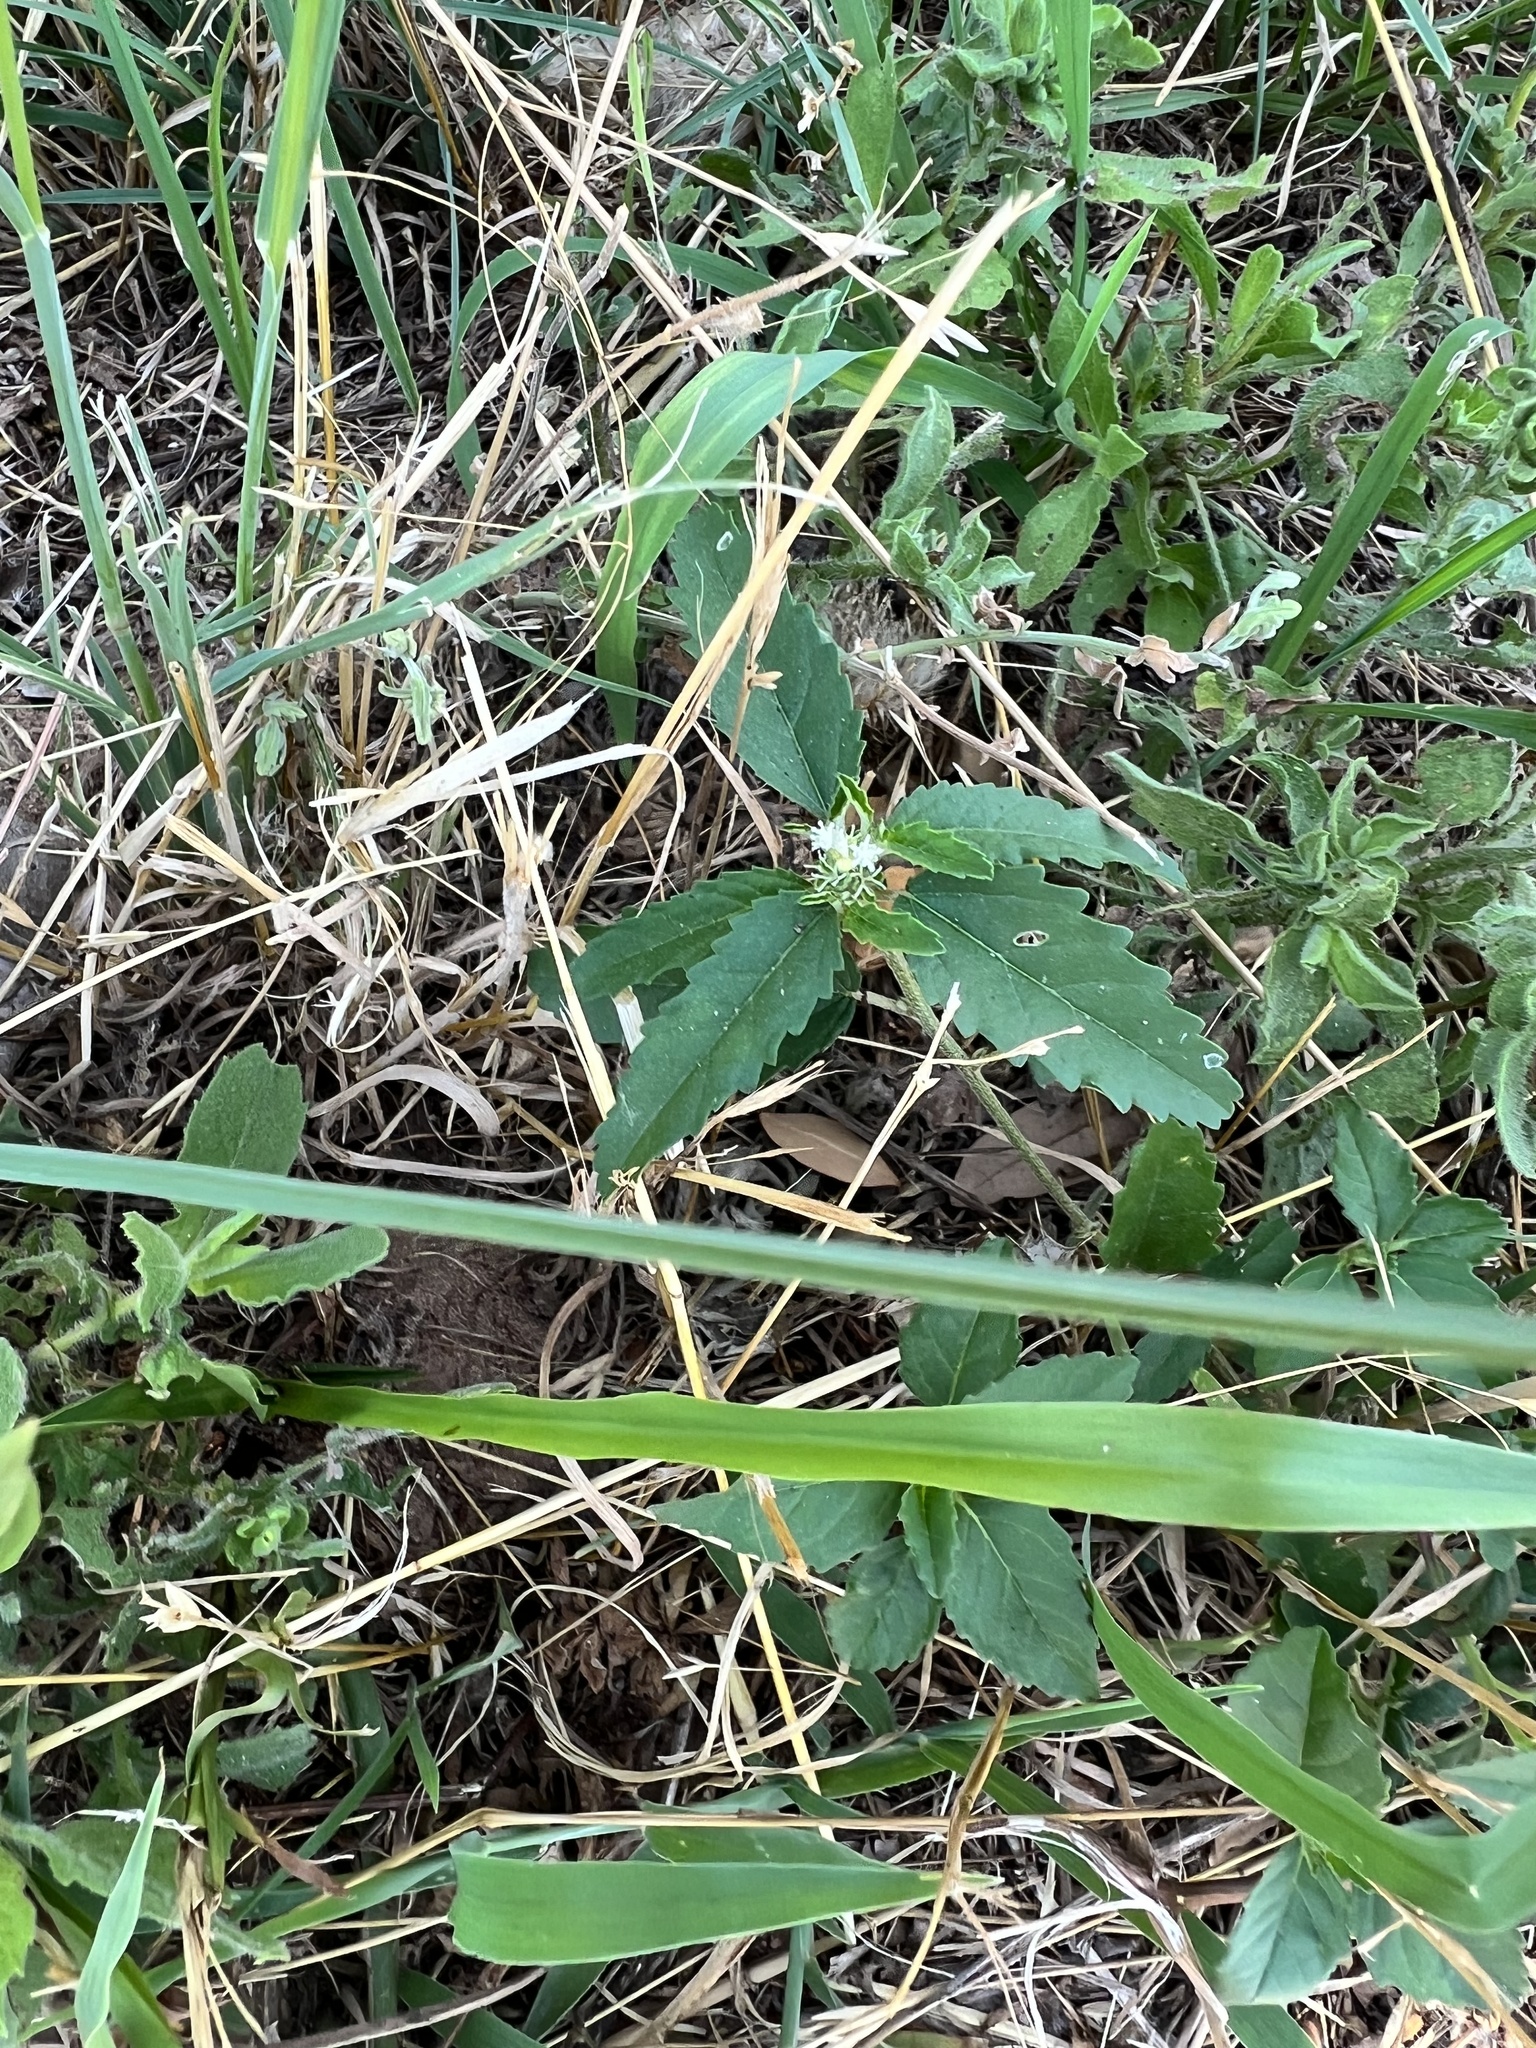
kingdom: Plantae
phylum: Tracheophyta
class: Magnoliopsida
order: Malpighiales
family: Euphorbiaceae
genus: Croton
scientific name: Croton glandulosus
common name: Tropic croton
